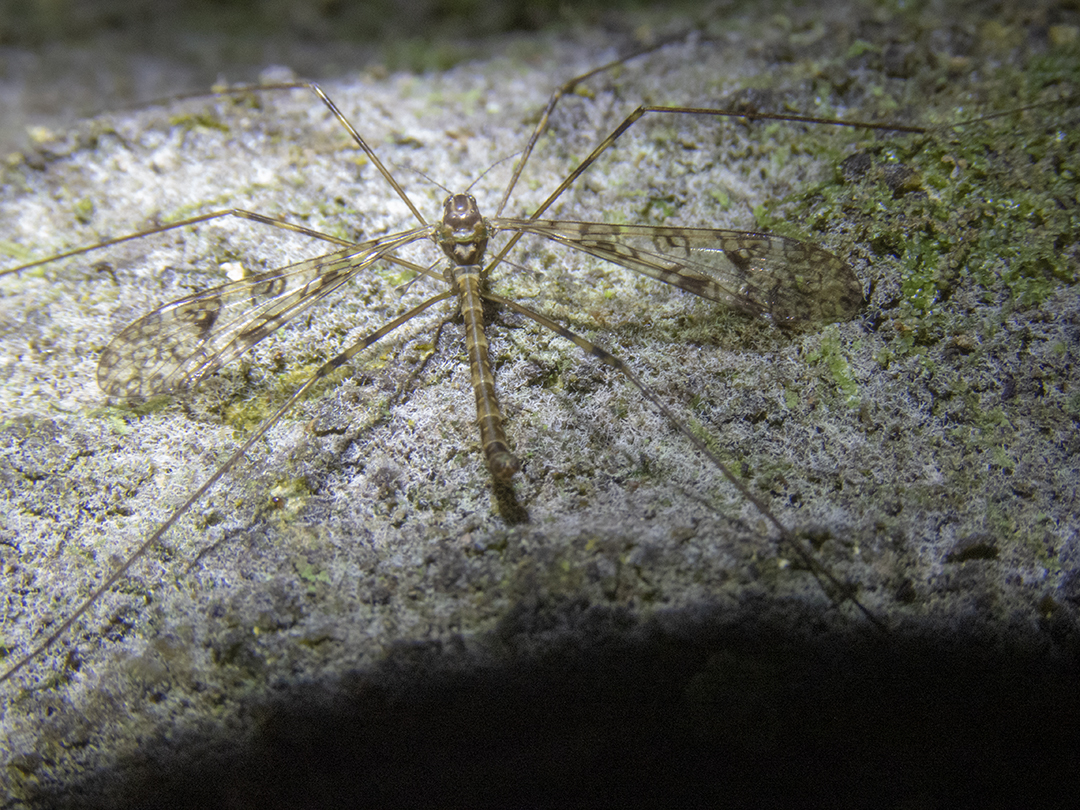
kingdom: Animalia
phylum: Arthropoda
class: Insecta
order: Diptera
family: Limoniidae
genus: Austrolimnophila
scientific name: Austrolimnophila argus
